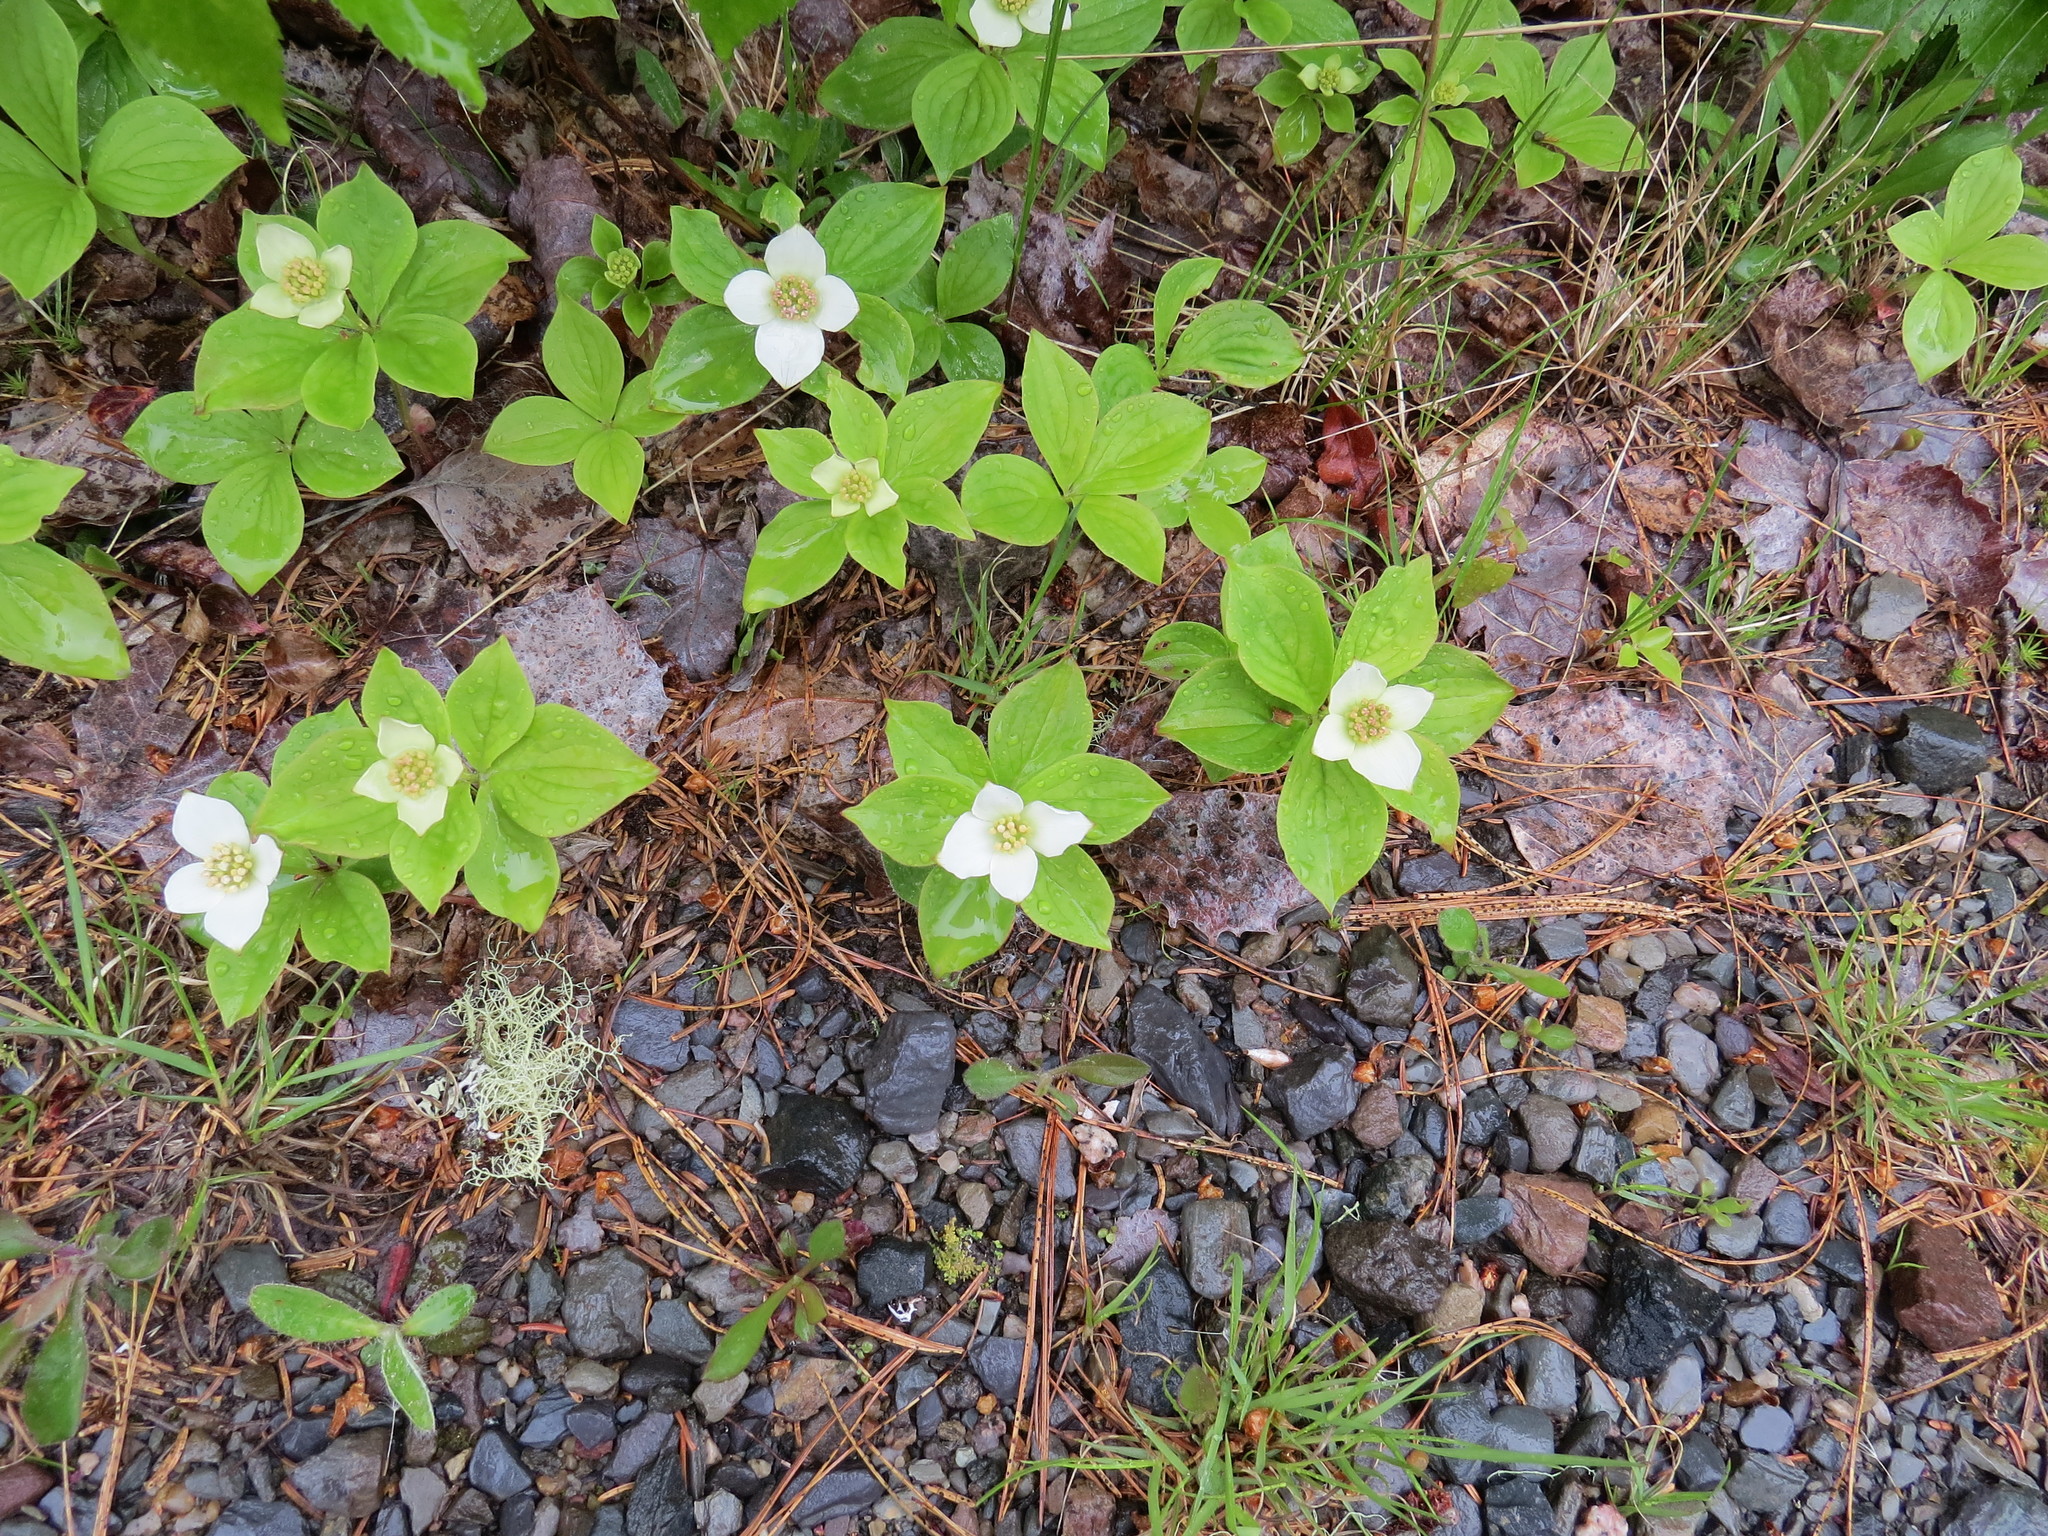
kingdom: Plantae
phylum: Tracheophyta
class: Magnoliopsida
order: Cornales
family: Cornaceae
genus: Cornus
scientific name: Cornus canadensis
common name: Creeping dogwood
